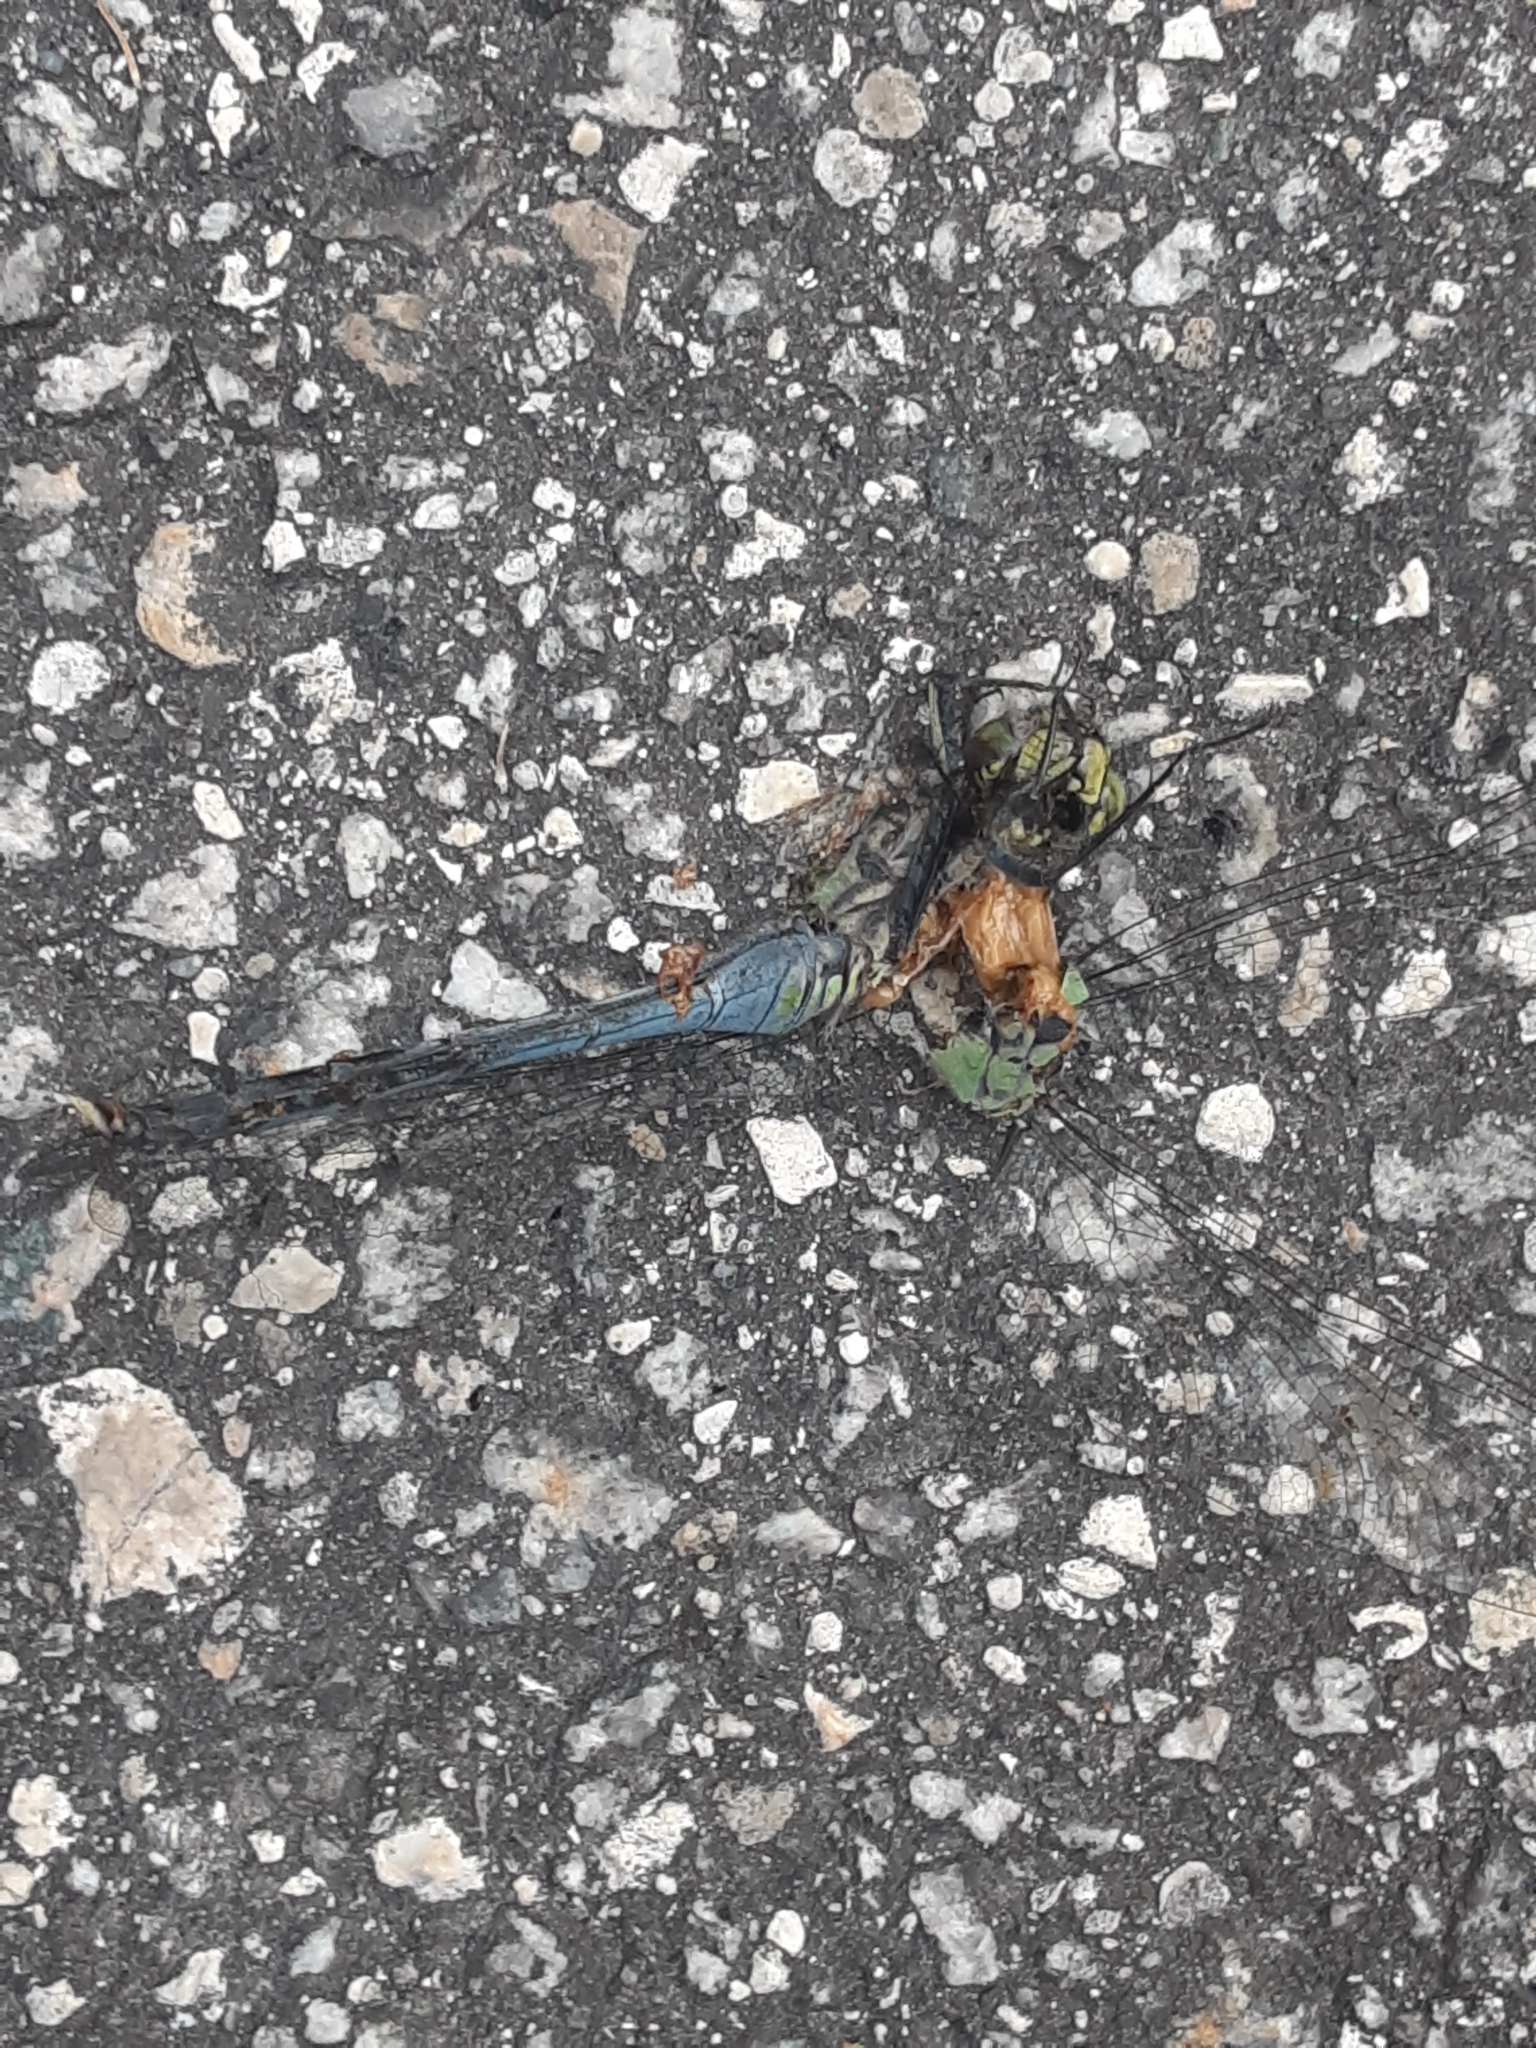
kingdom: Animalia
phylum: Arthropoda
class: Insecta
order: Odonata
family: Libellulidae
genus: Erythemis
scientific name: Erythemis simplicicollis
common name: Eastern pondhawk
